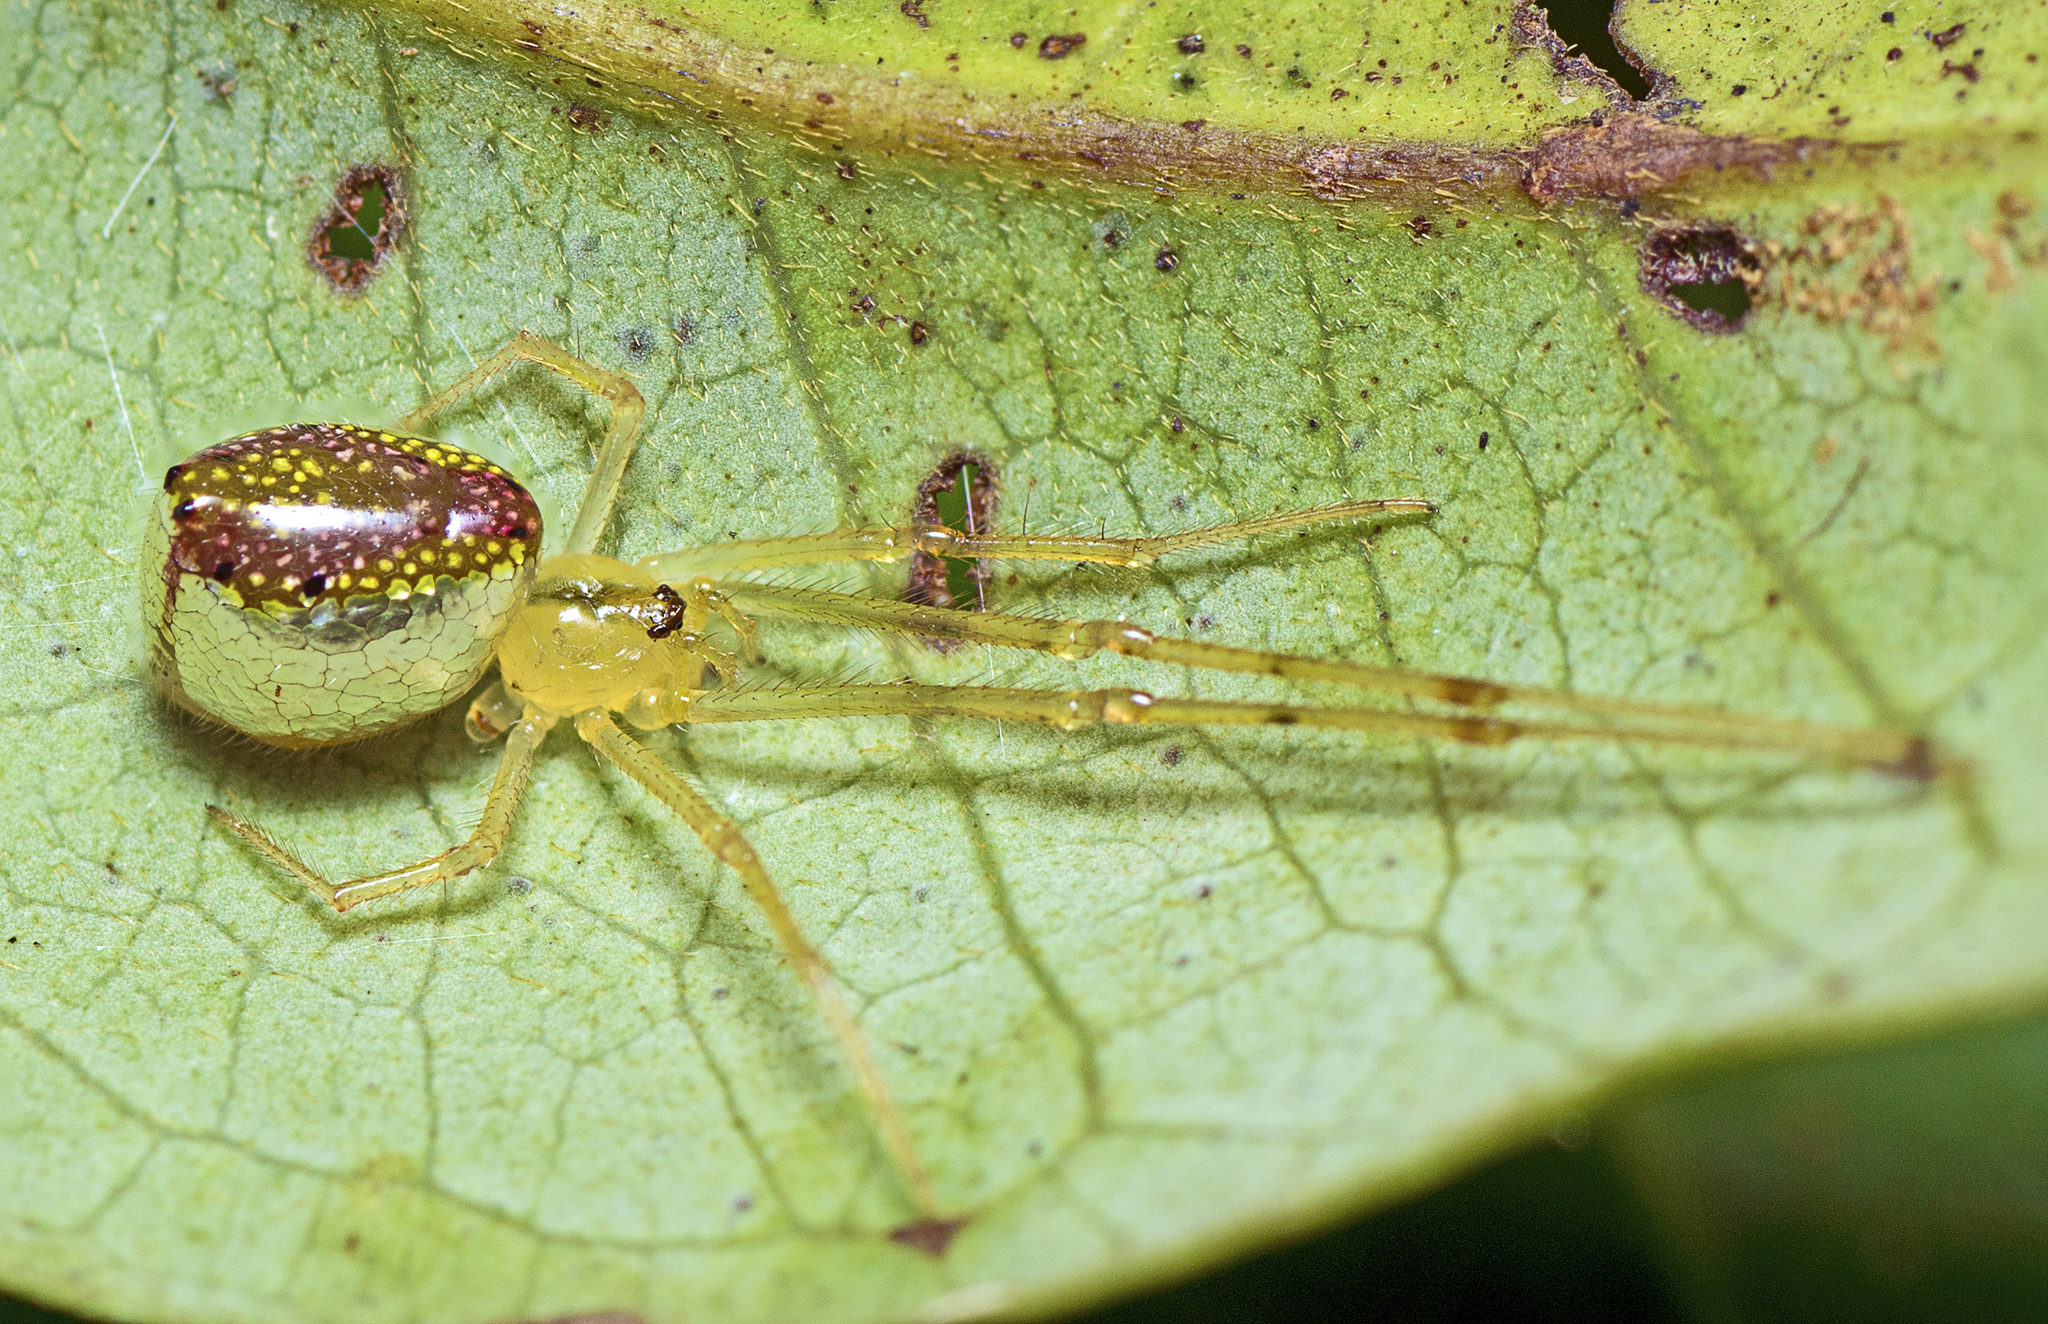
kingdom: Animalia
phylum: Arthropoda
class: Arachnida
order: Araneae
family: Theridiidae
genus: Thwaitesia
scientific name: Thwaitesia nigronodosa
